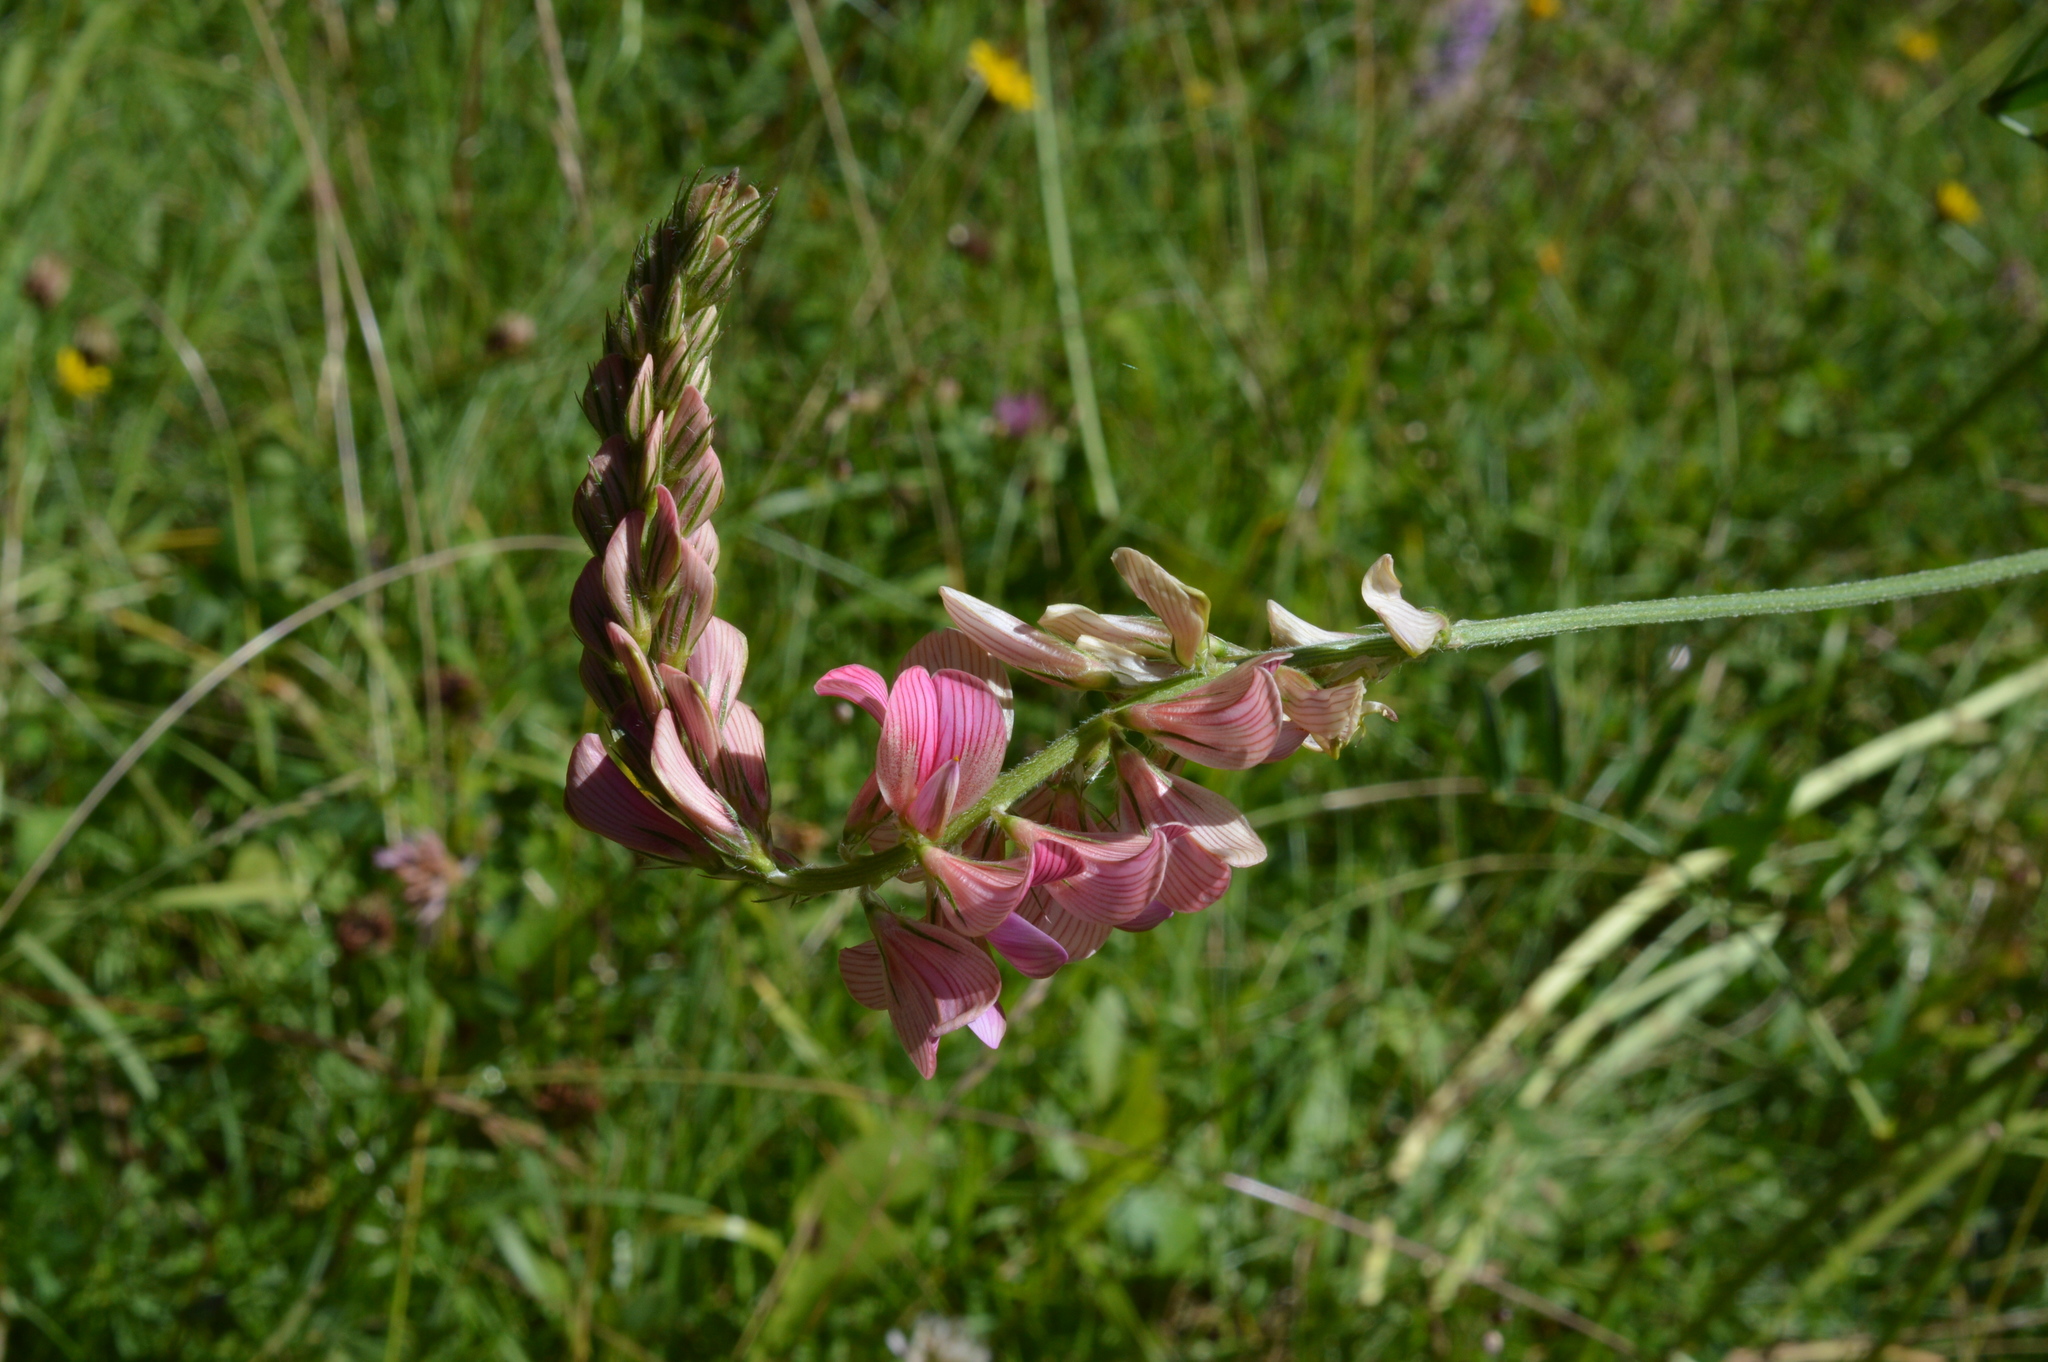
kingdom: Plantae
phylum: Tracheophyta
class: Magnoliopsida
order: Fabales
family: Fabaceae
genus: Onobrychis
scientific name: Onobrychis viciifolia
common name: Sainfoin
